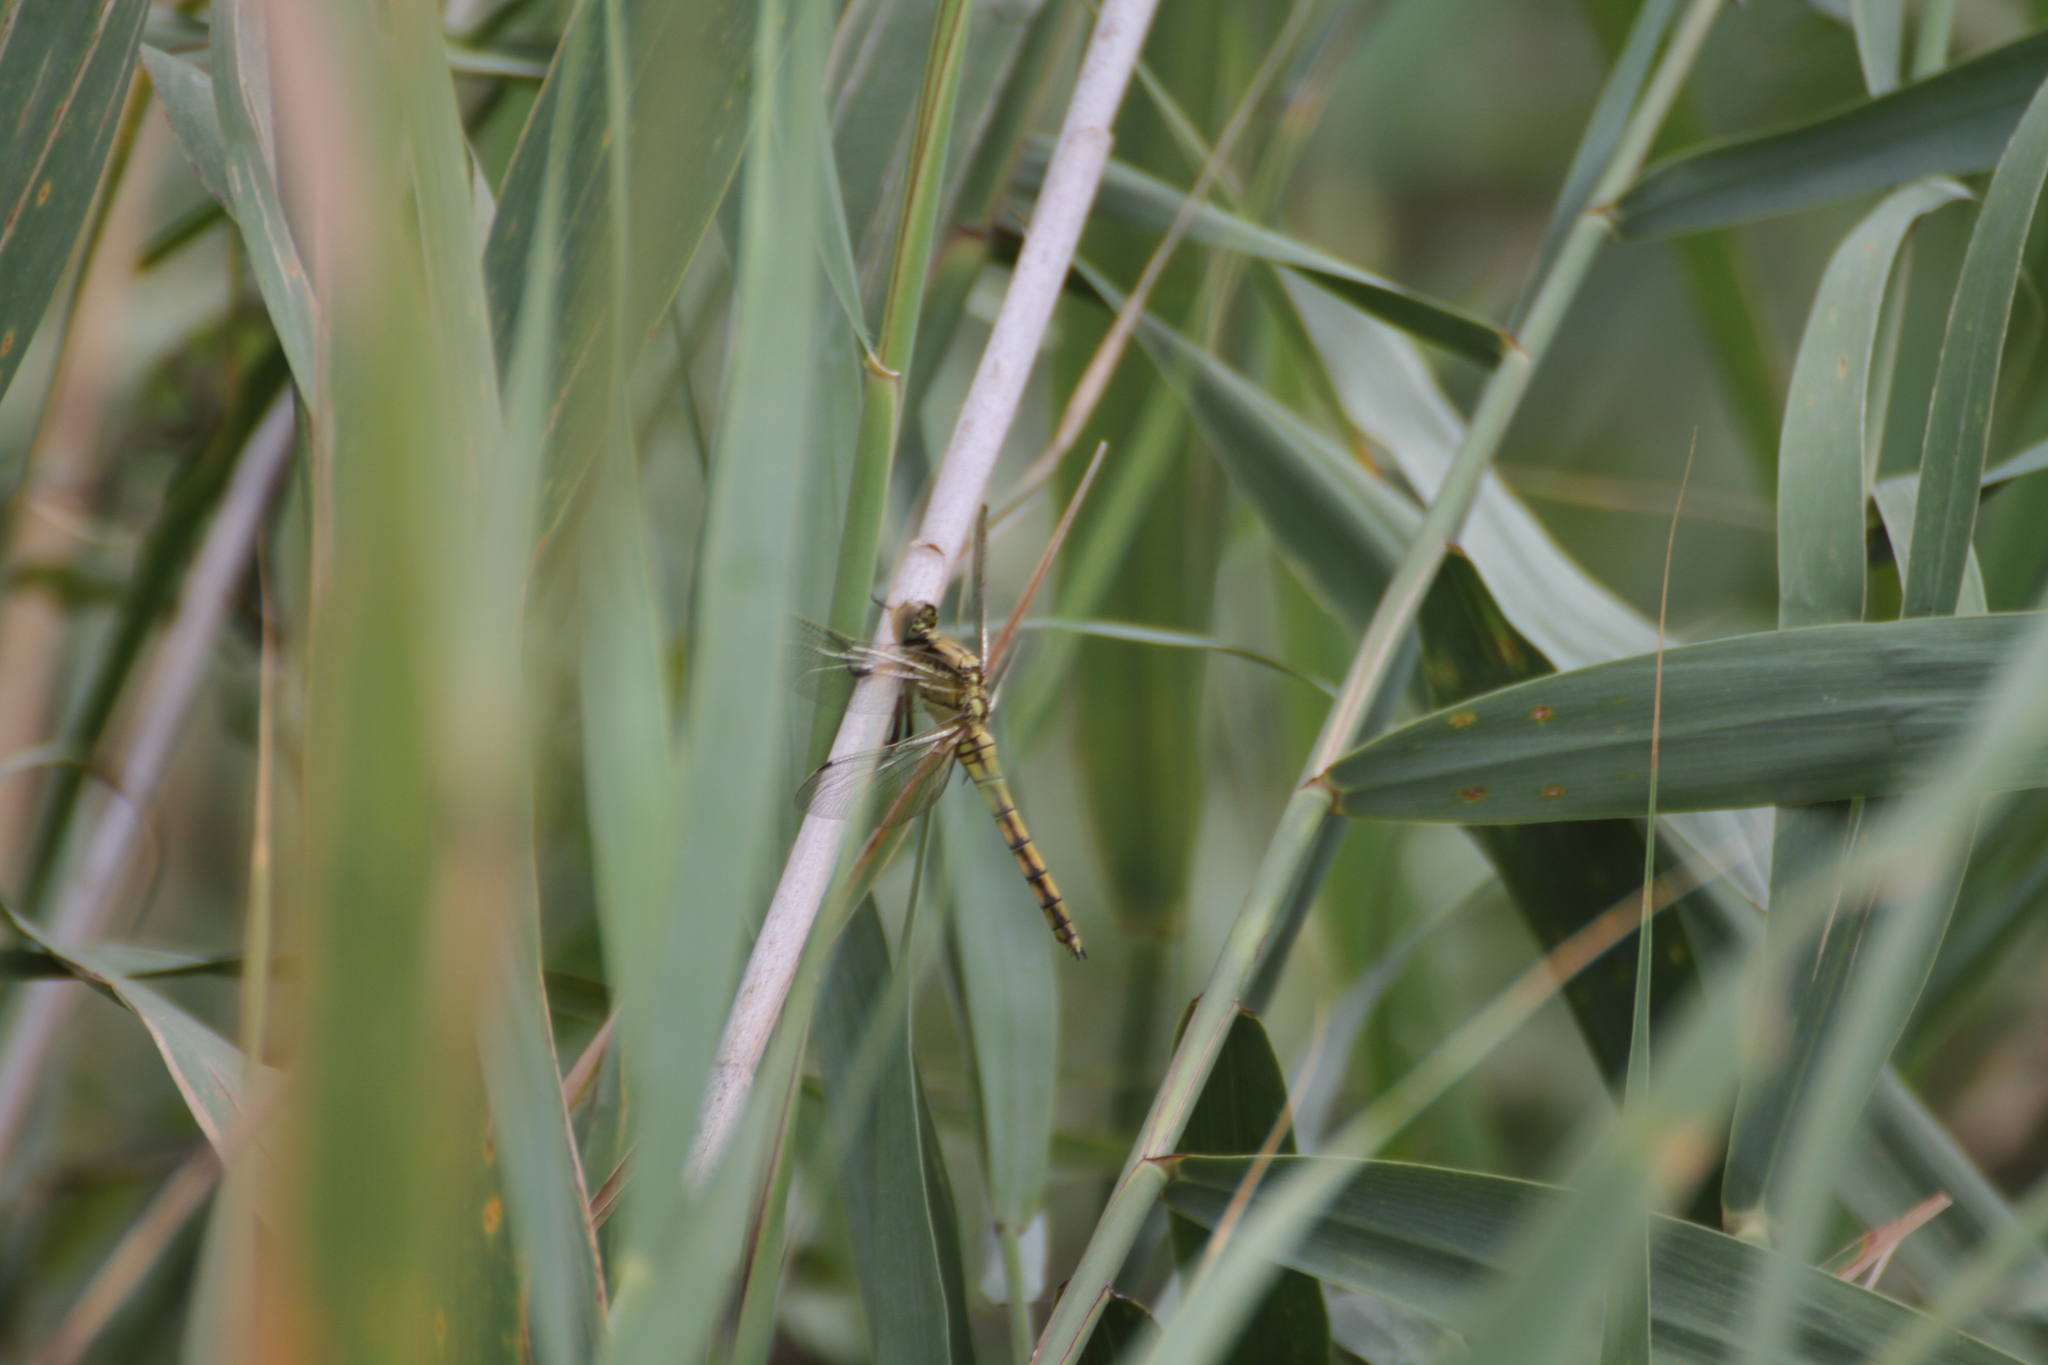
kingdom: Animalia
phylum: Arthropoda
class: Insecta
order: Odonata
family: Libellulidae
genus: Orthetrum
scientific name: Orthetrum cancellatum
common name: Black-tailed skimmer
